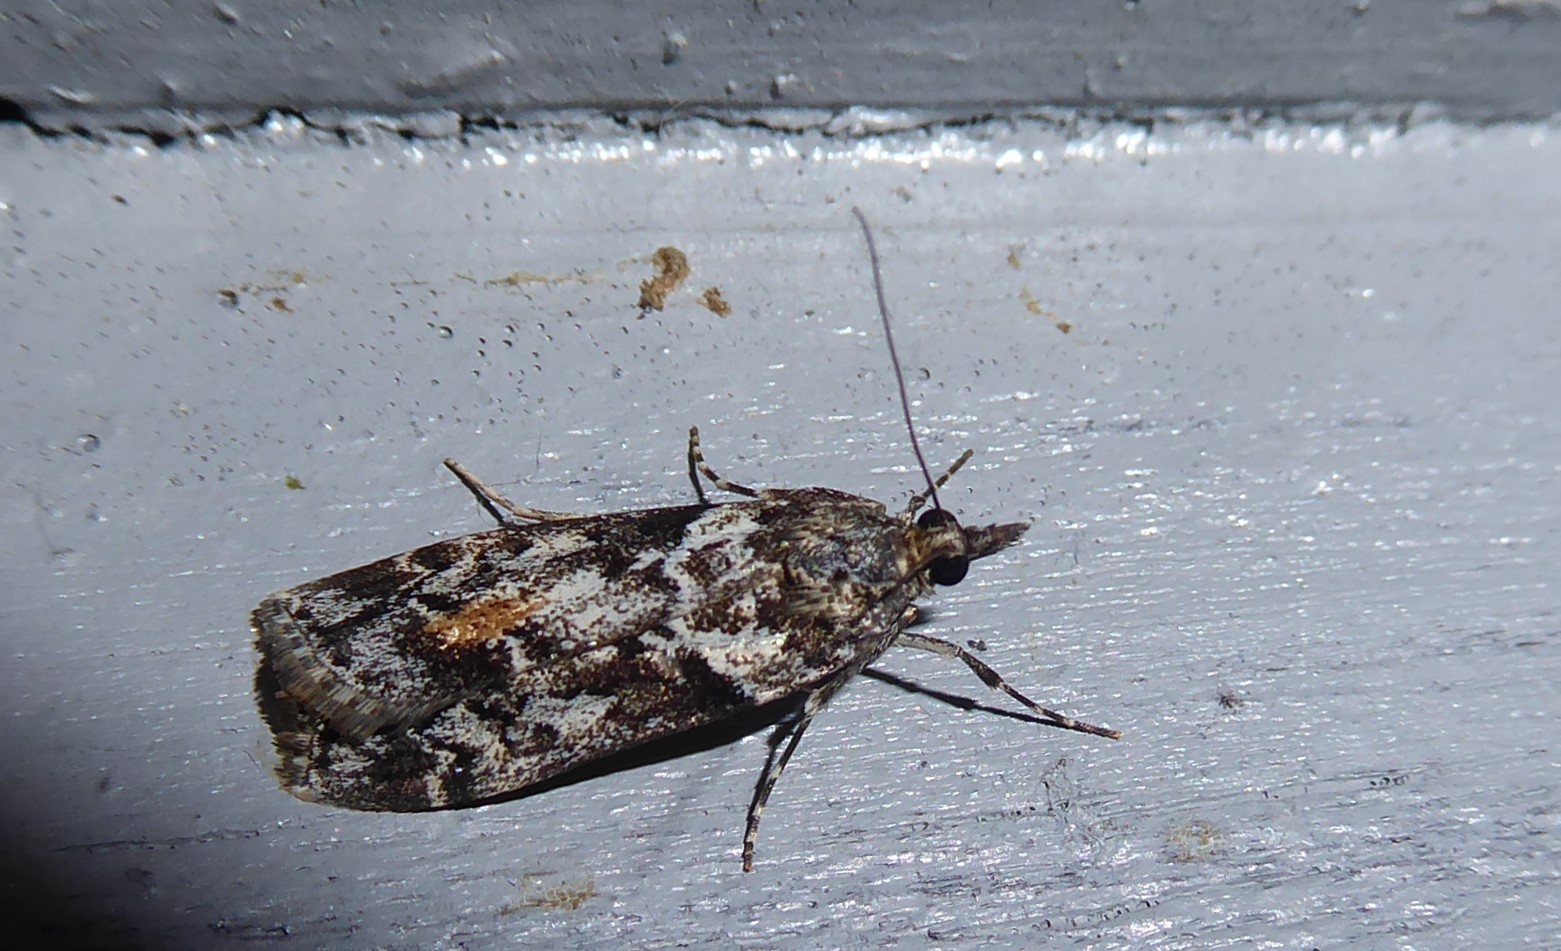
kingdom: Animalia
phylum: Arthropoda
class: Insecta
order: Lepidoptera
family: Crambidae
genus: Eudonia
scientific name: Eudonia submarginalis
